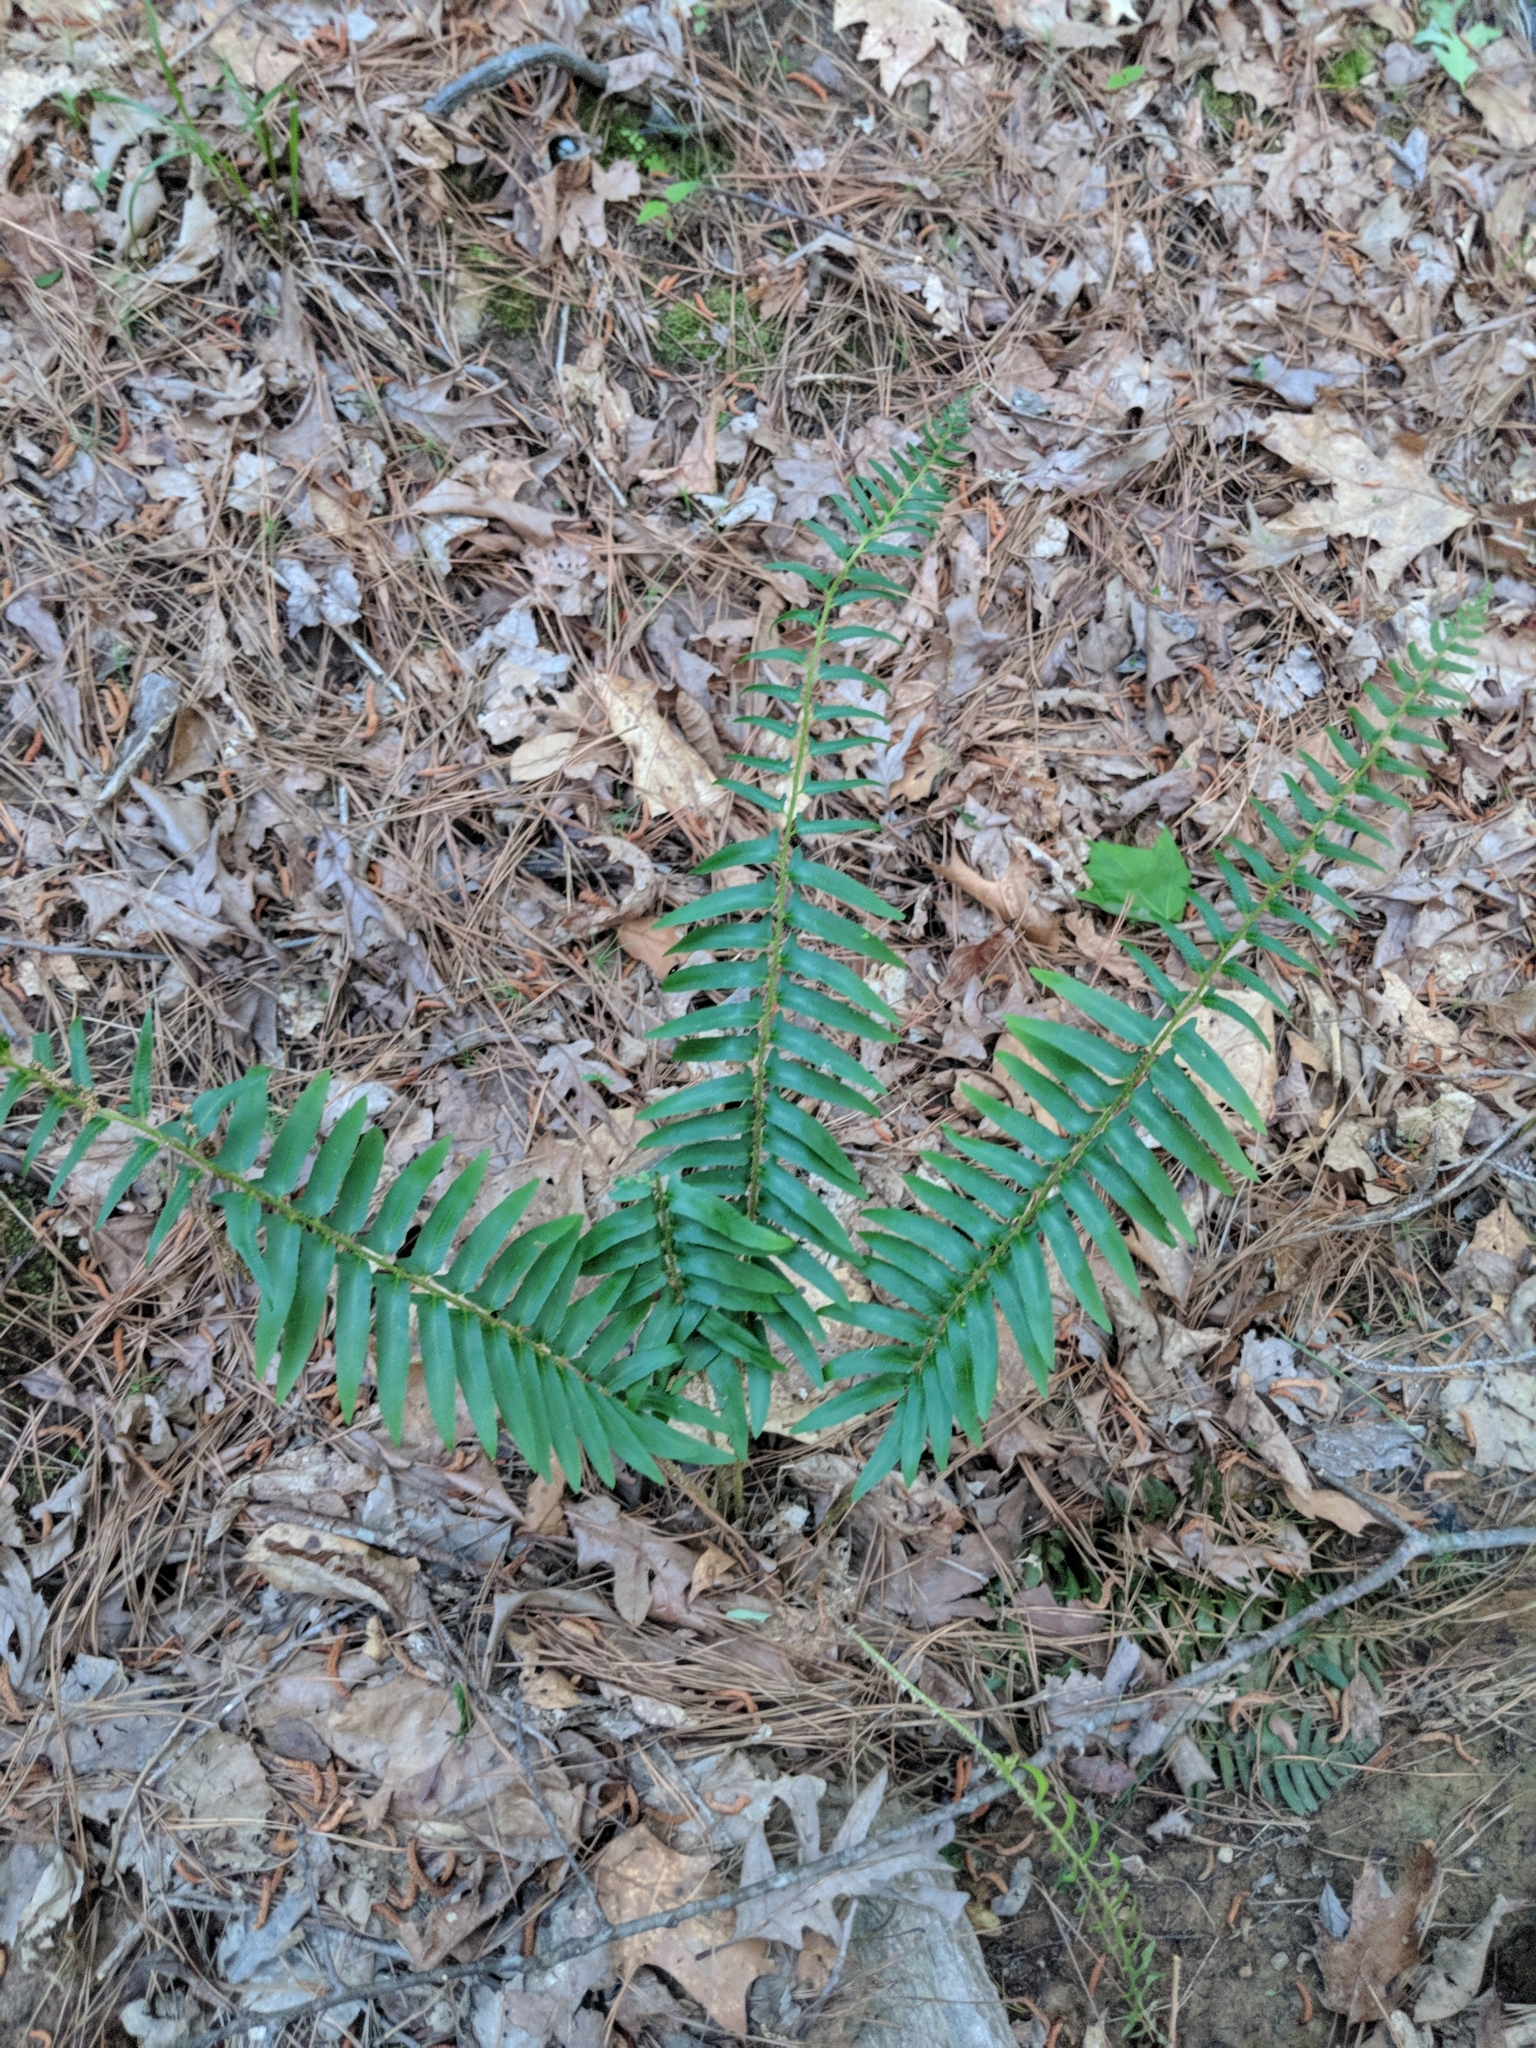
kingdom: Plantae
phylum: Tracheophyta
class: Polypodiopsida
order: Polypodiales
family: Dryopteridaceae
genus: Polystichum
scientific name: Polystichum acrostichoides
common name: Christmas fern
